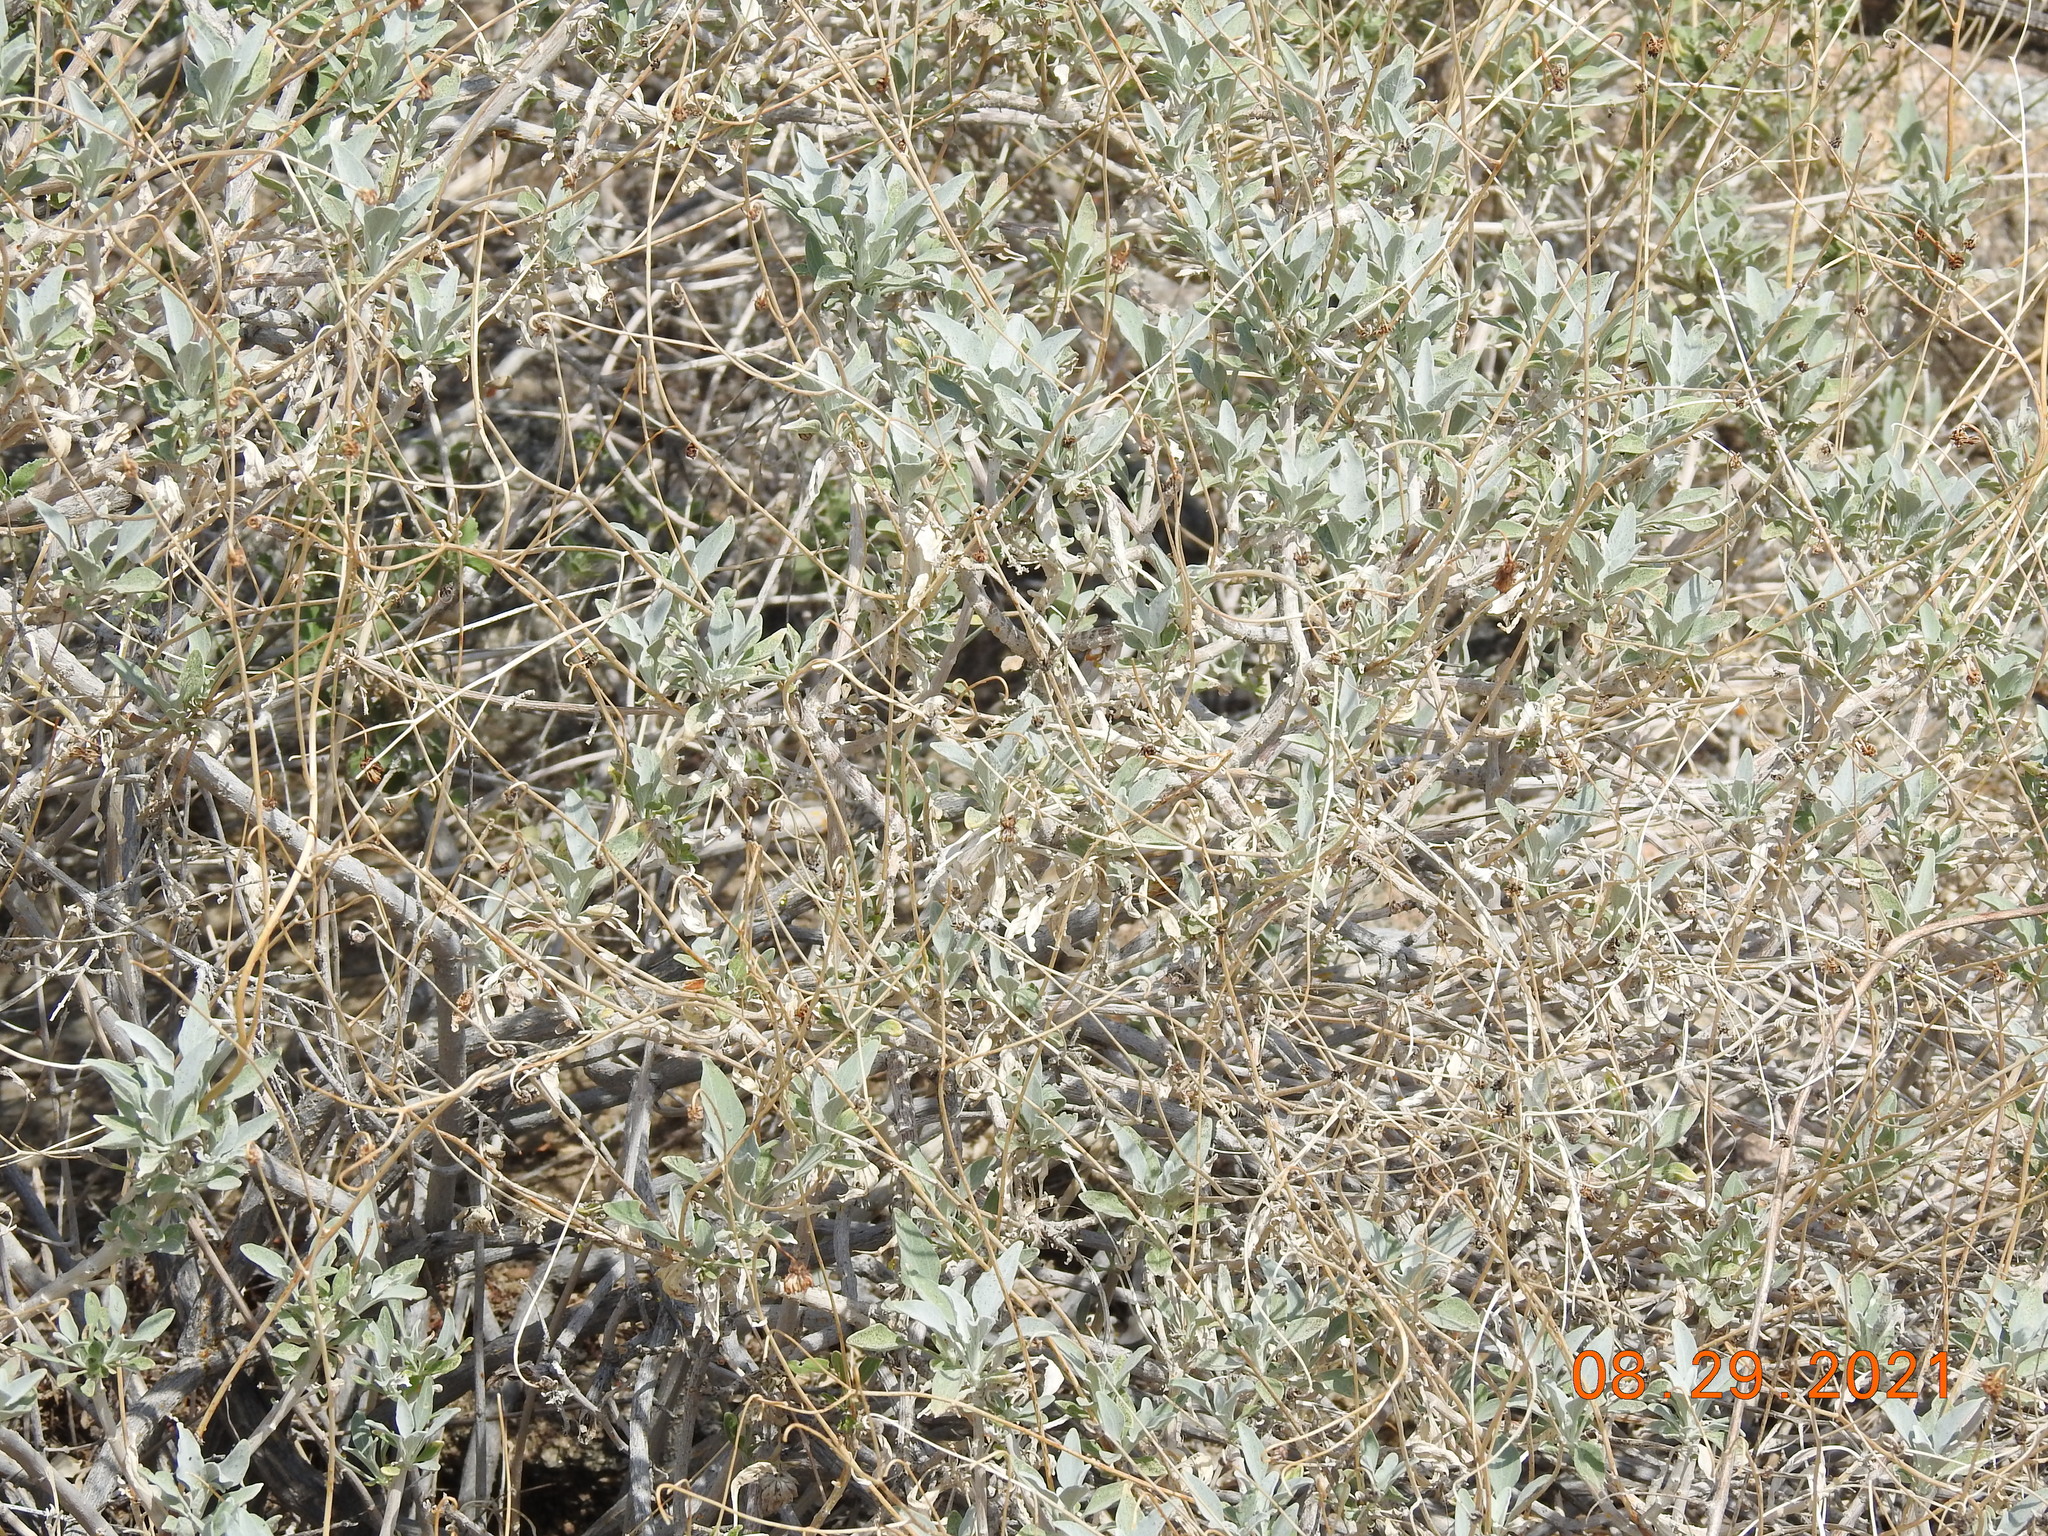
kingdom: Plantae
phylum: Tracheophyta
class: Magnoliopsida
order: Asterales
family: Asteraceae
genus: Encelia
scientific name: Encelia farinosa
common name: Brittlebush
